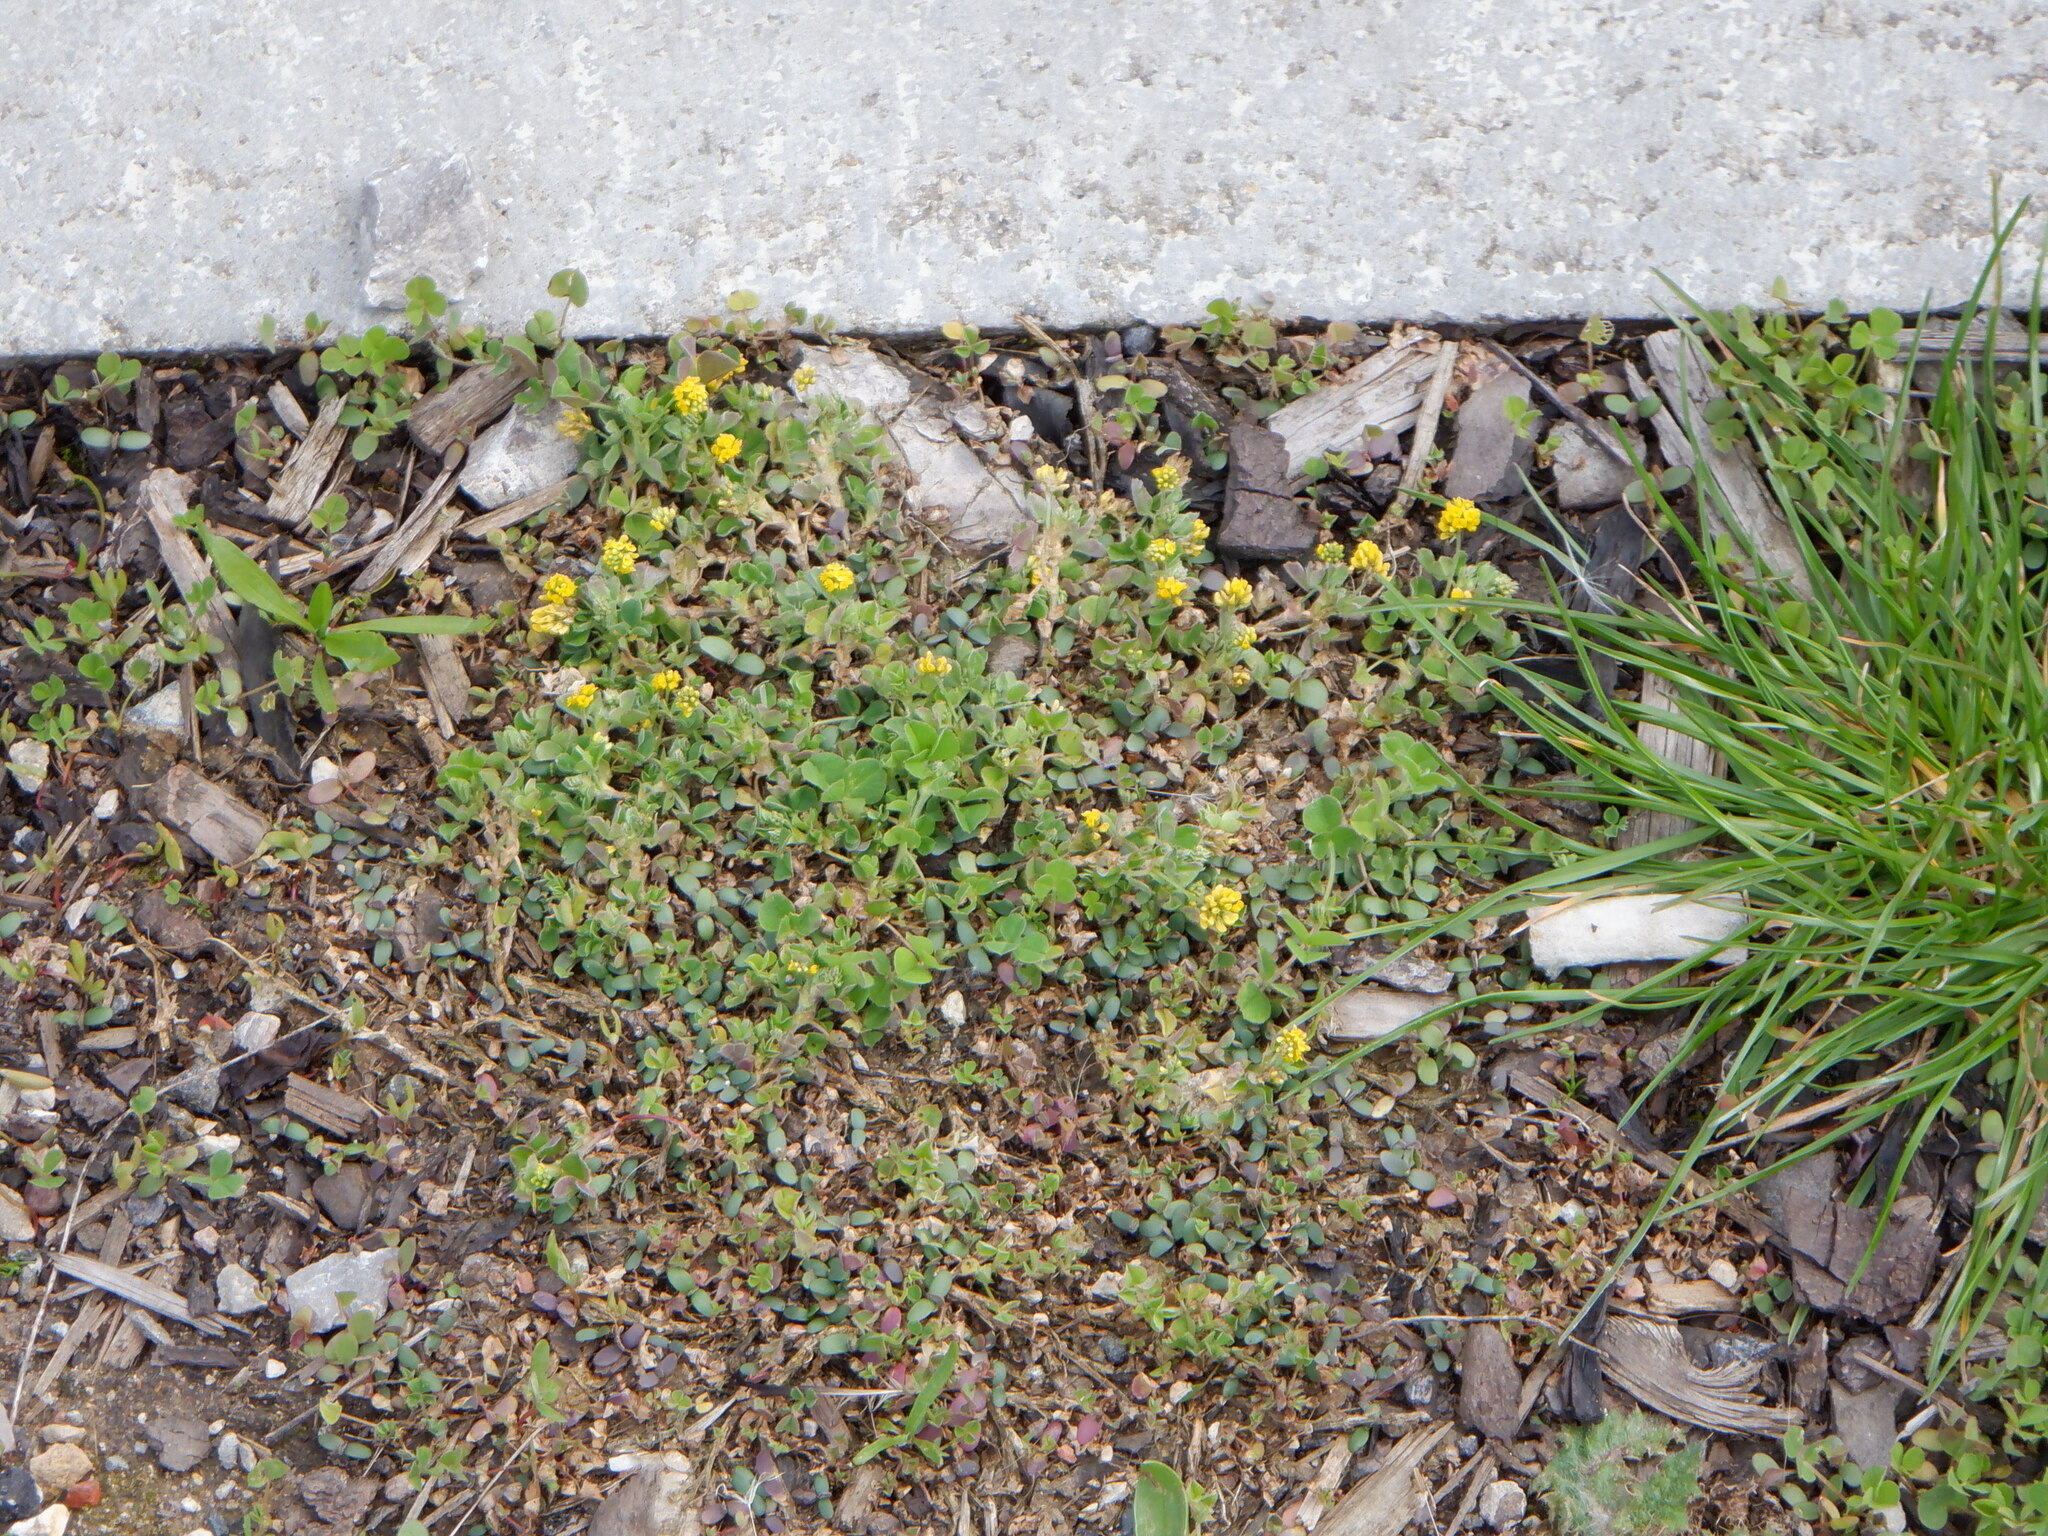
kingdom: Plantae
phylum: Tracheophyta
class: Magnoliopsida
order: Fabales
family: Fabaceae
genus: Medicago
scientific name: Medicago lupulina
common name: Black medick
